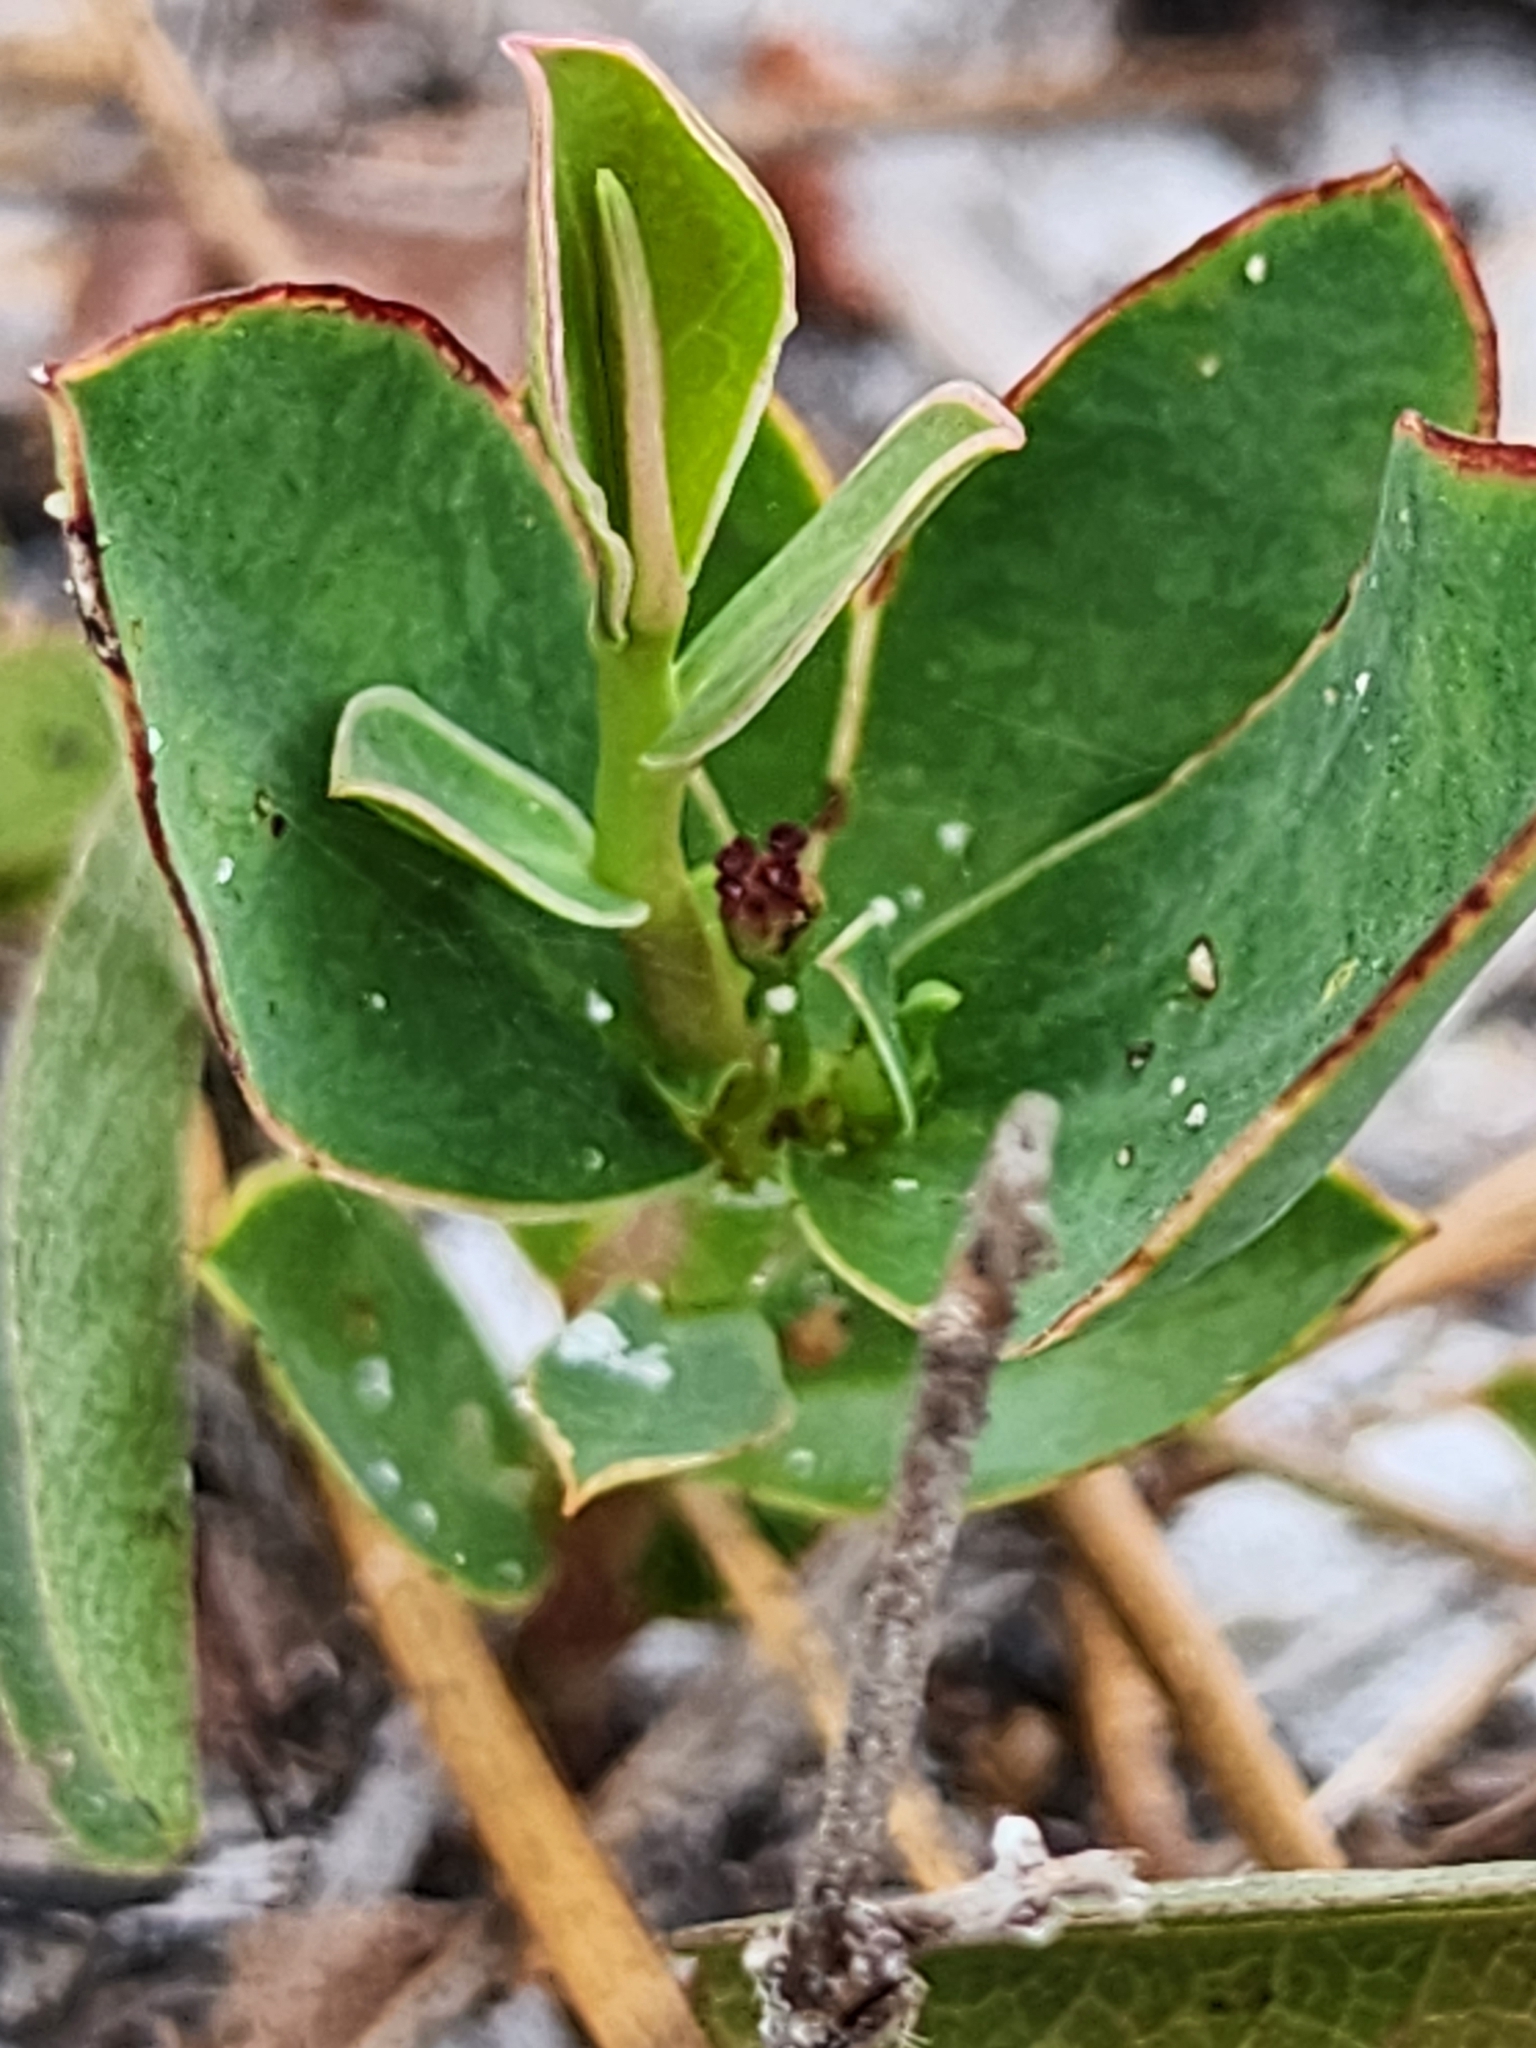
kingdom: Plantae
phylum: Tracheophyta
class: Magnoliopsida
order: Malpighiales
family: Euphorbiaceae
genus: Euphorbia
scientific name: Euphorbia telephioides
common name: Telephus spurge
